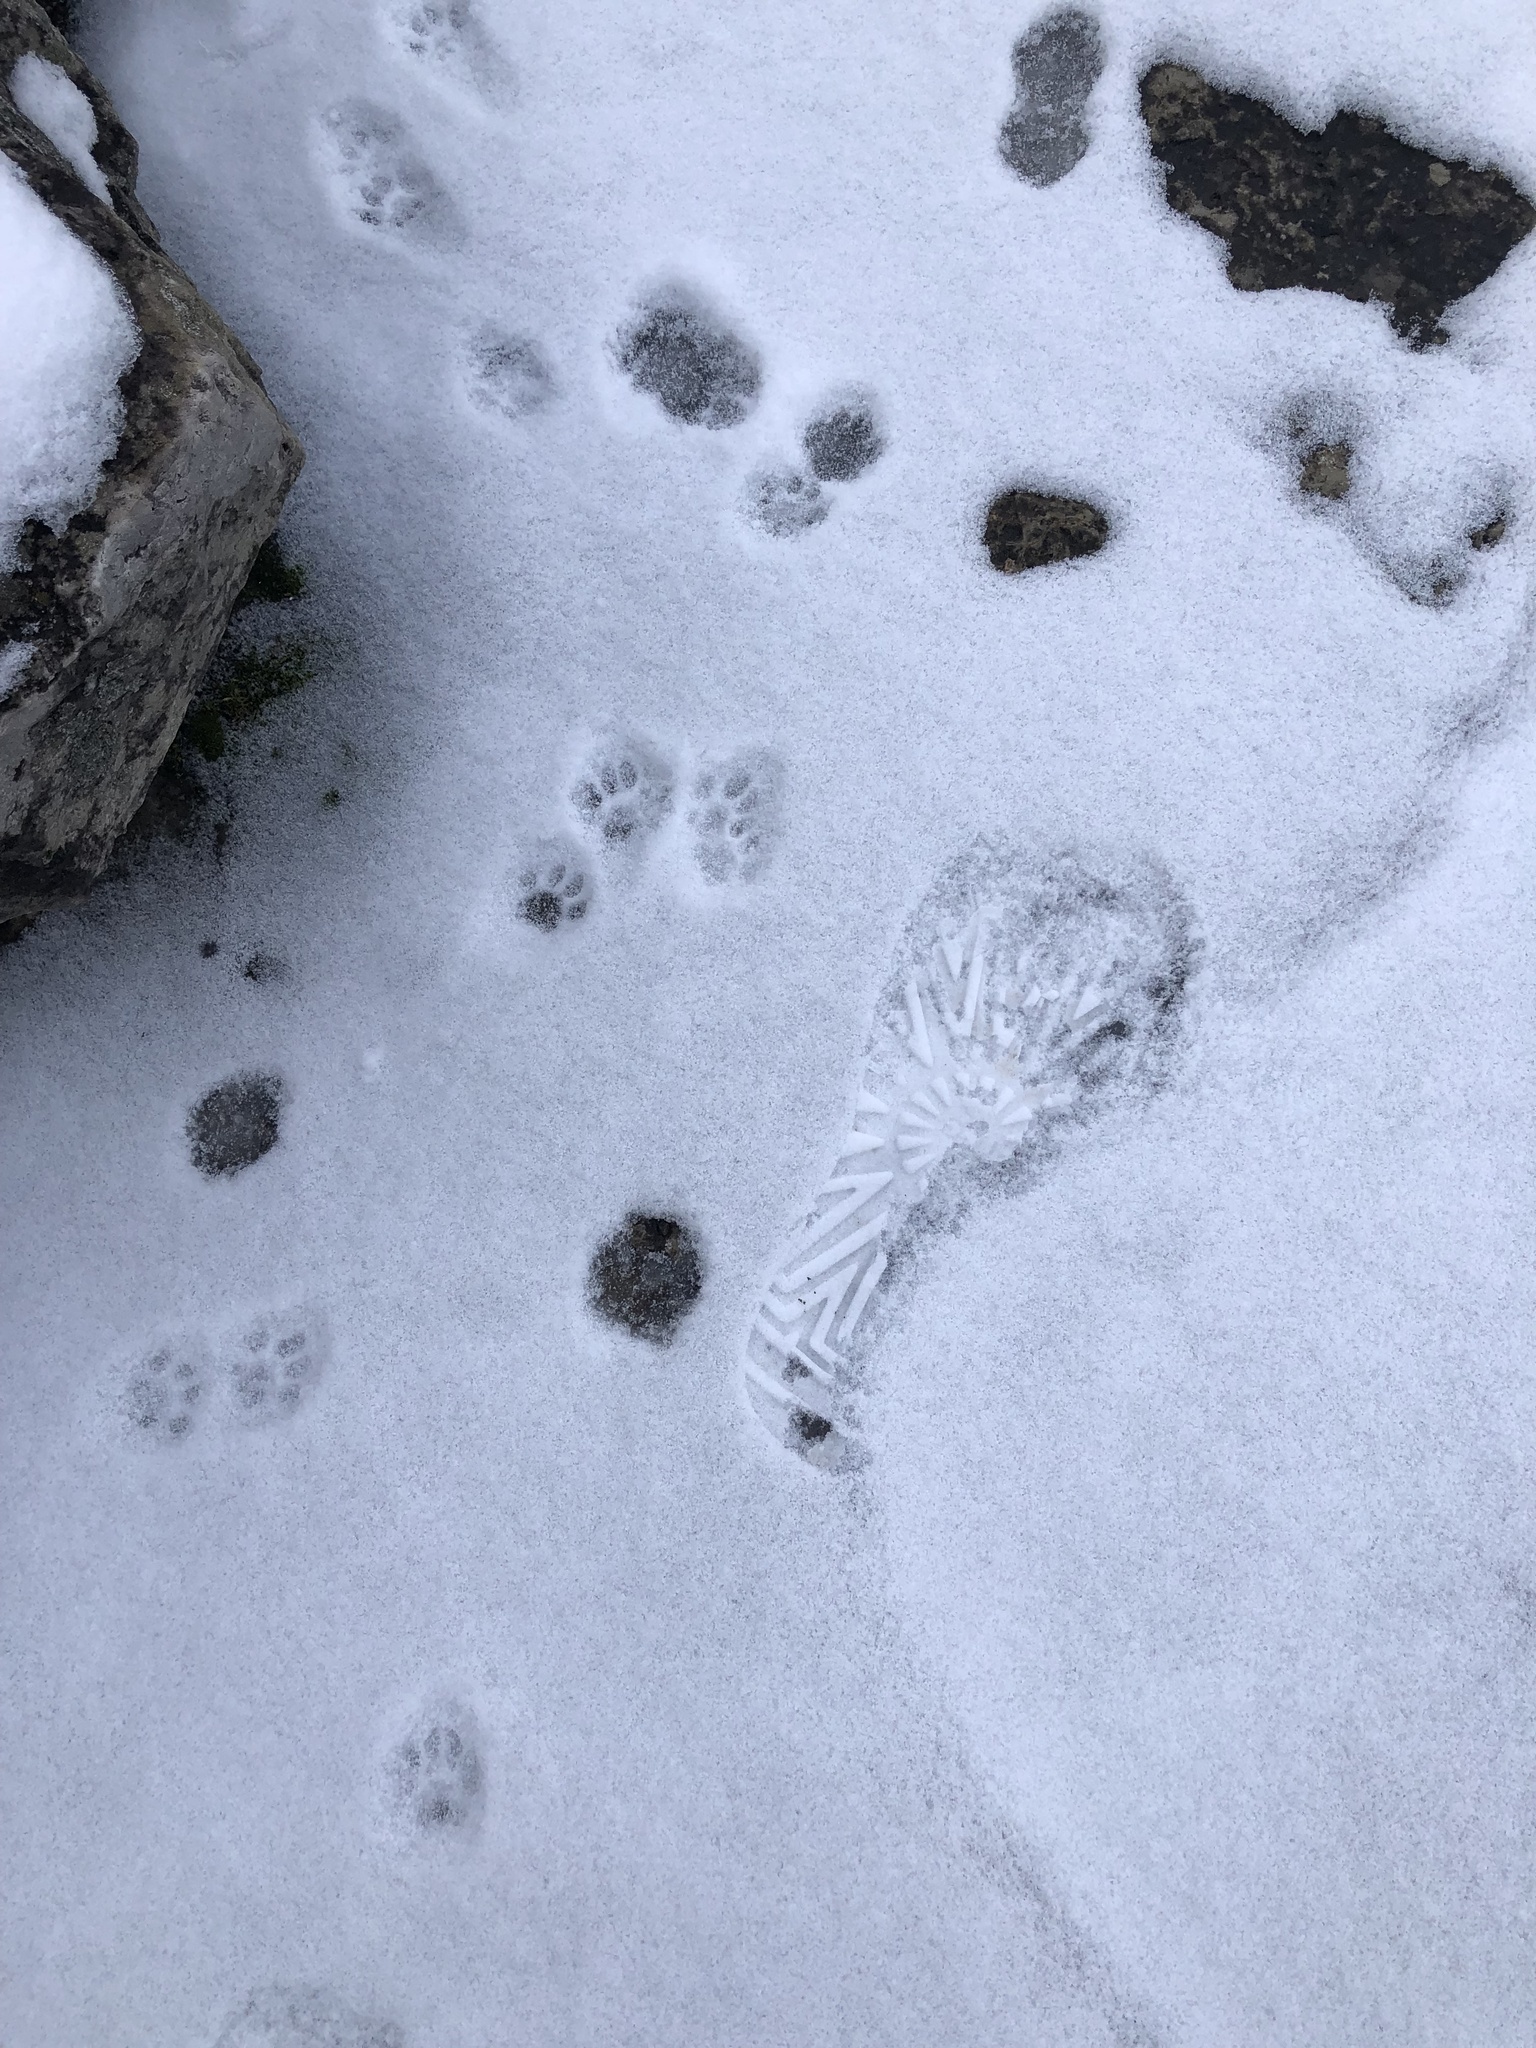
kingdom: Animalia
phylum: Chordata
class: Mammalia
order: Carnivora
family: Felidae
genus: Felis
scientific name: Felis catus
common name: Domestic cat
